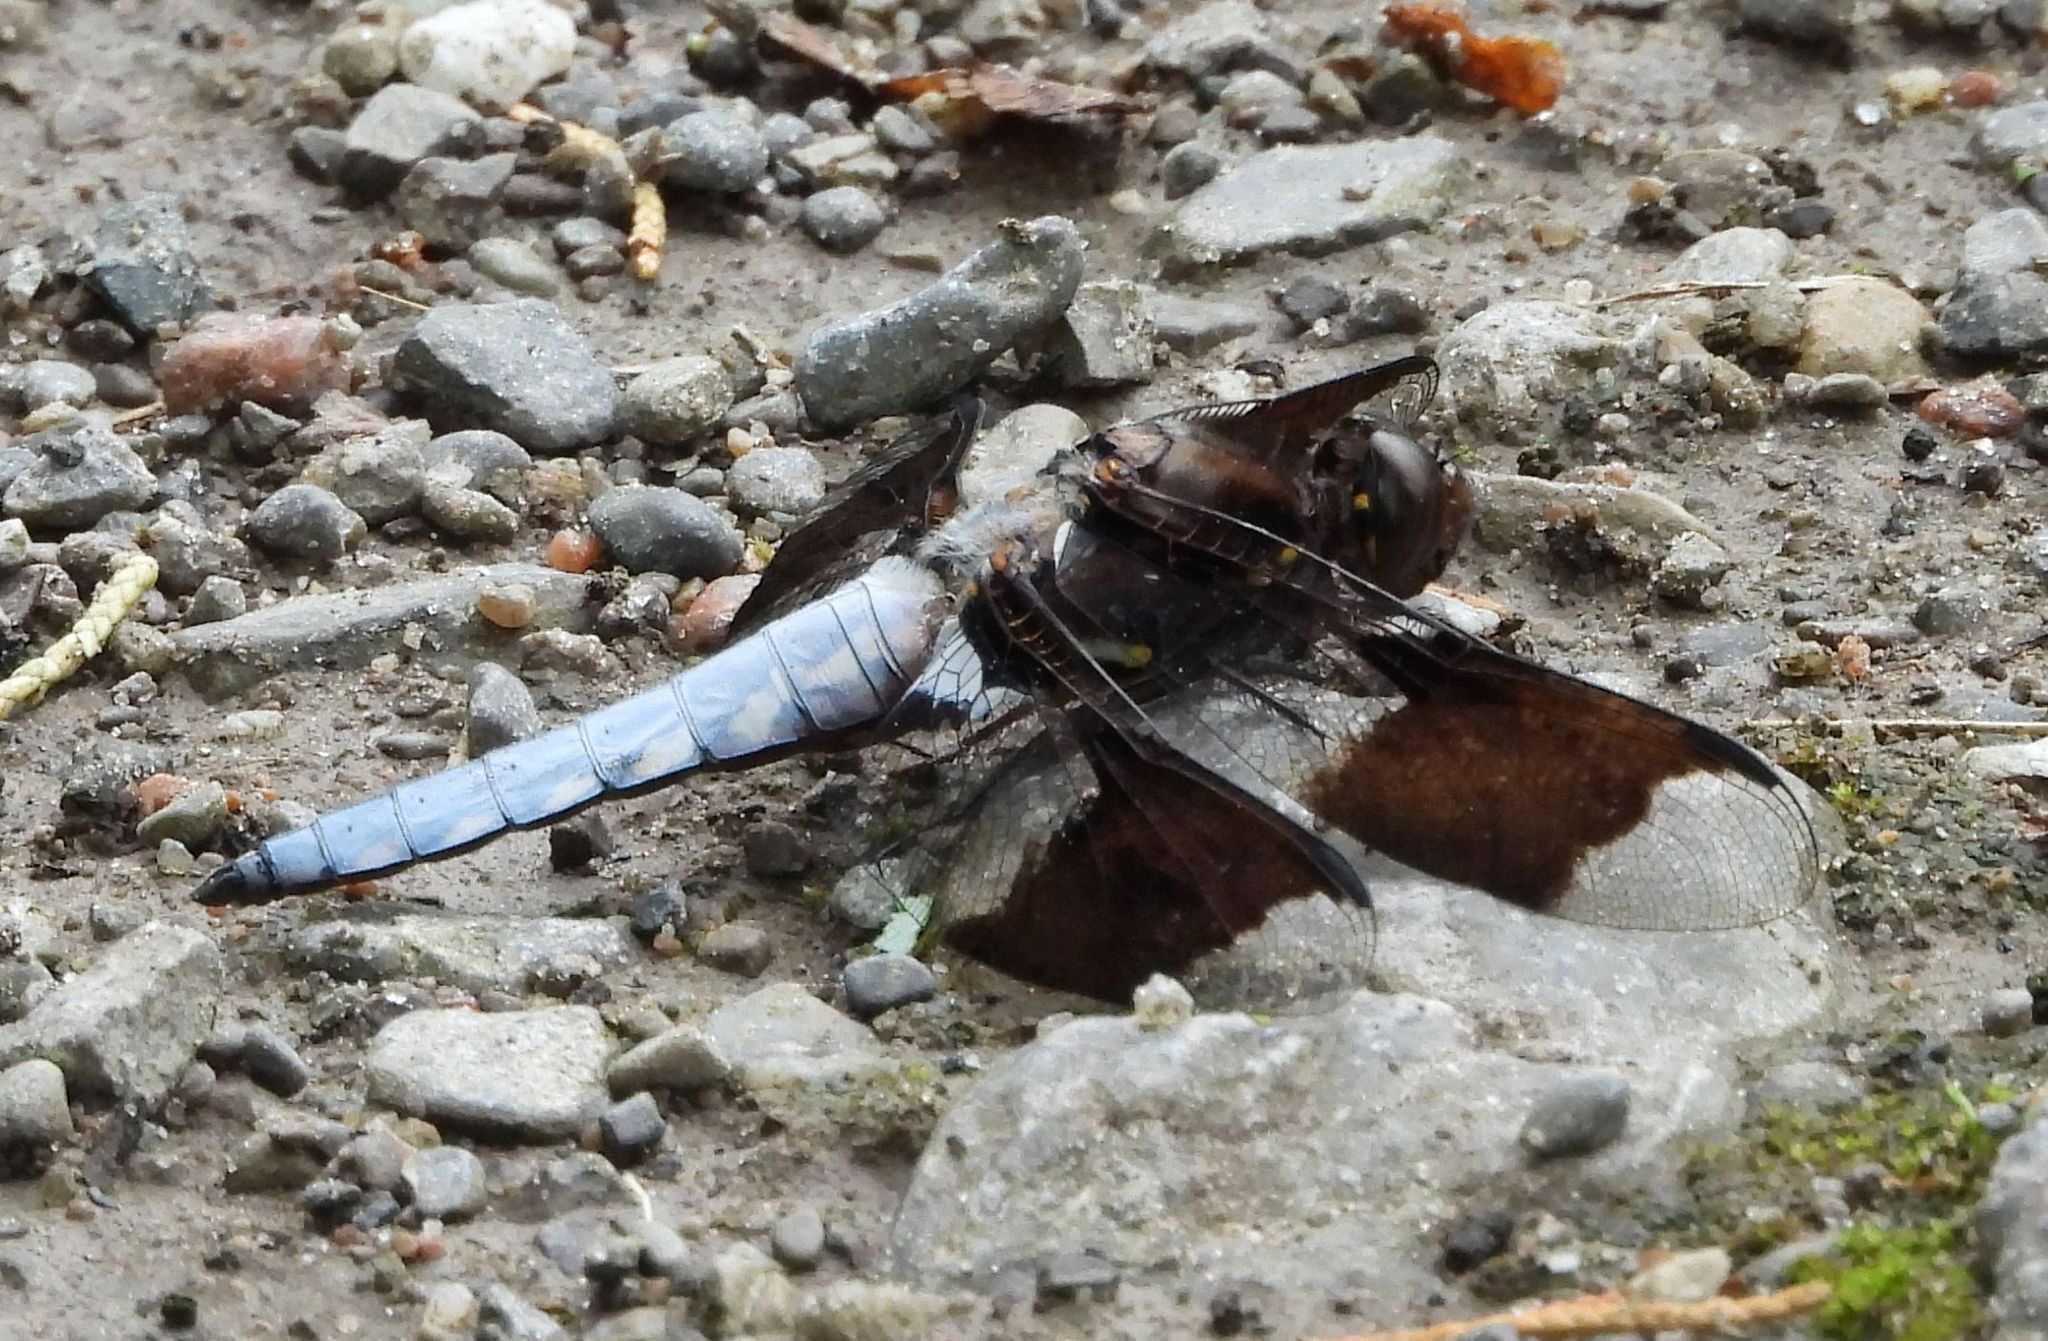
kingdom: Animalia
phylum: Arthropoda
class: Insecta
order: Odonata
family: Libellulidae
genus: Plathemis
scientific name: Plathemis lydia
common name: Common whitetail
